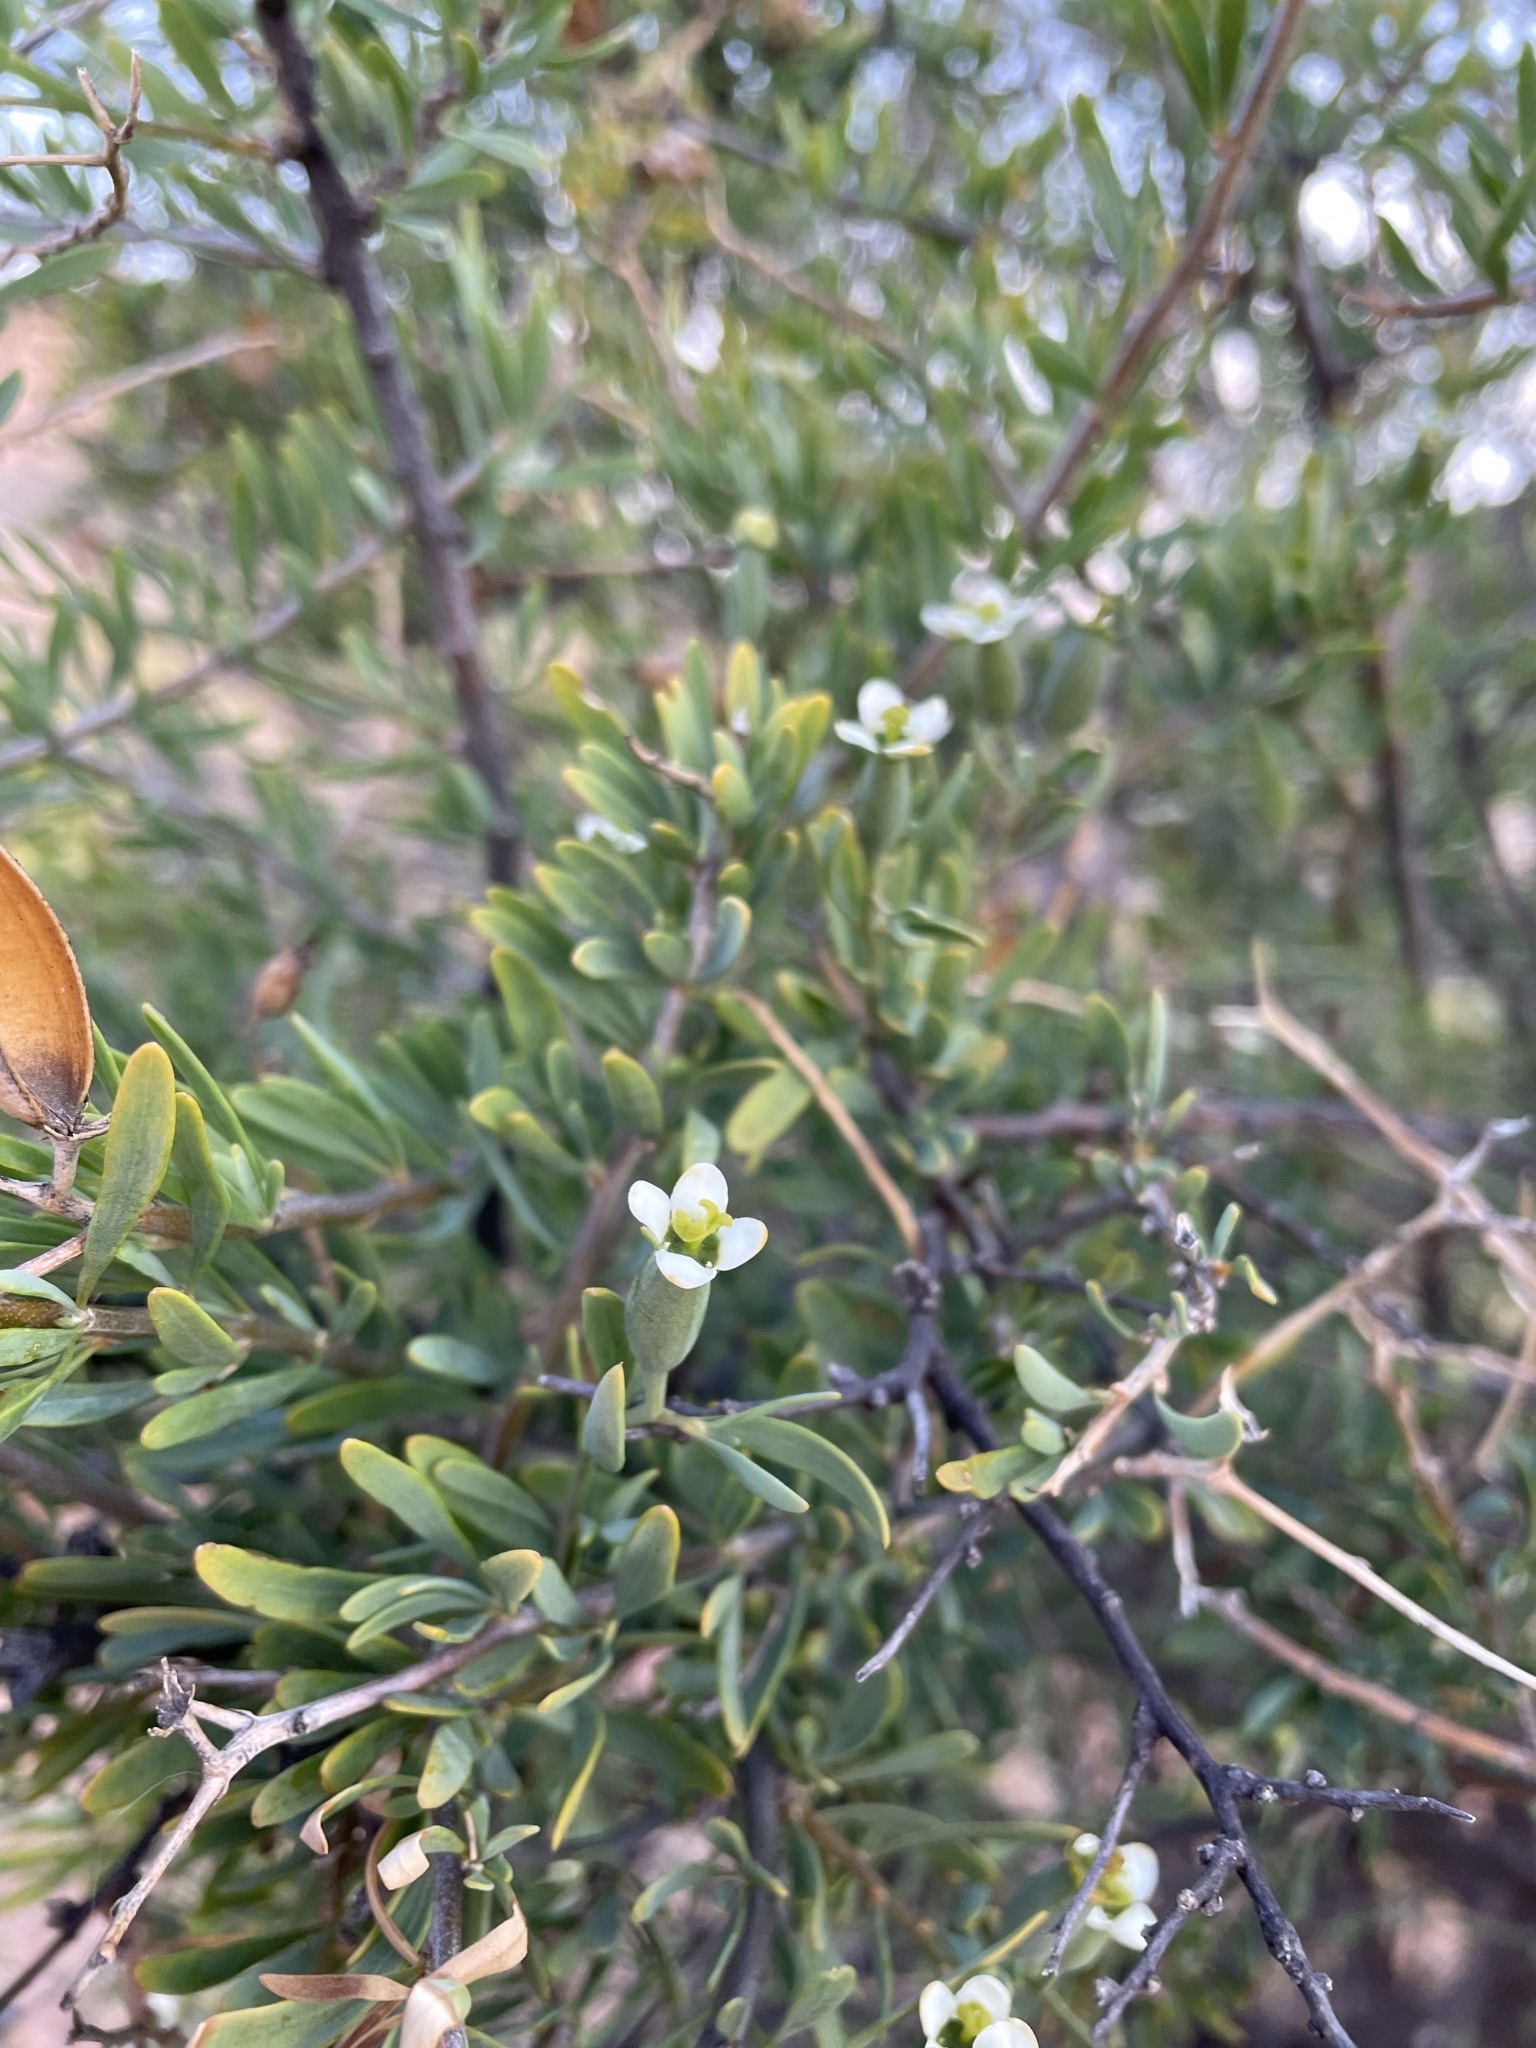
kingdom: Plantae
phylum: Tracheophyta
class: Magnoliopsida
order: Solanales
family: Montiniaceae
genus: Montinia
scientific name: Montinia caryophyllacea
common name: Wild clove-bush
